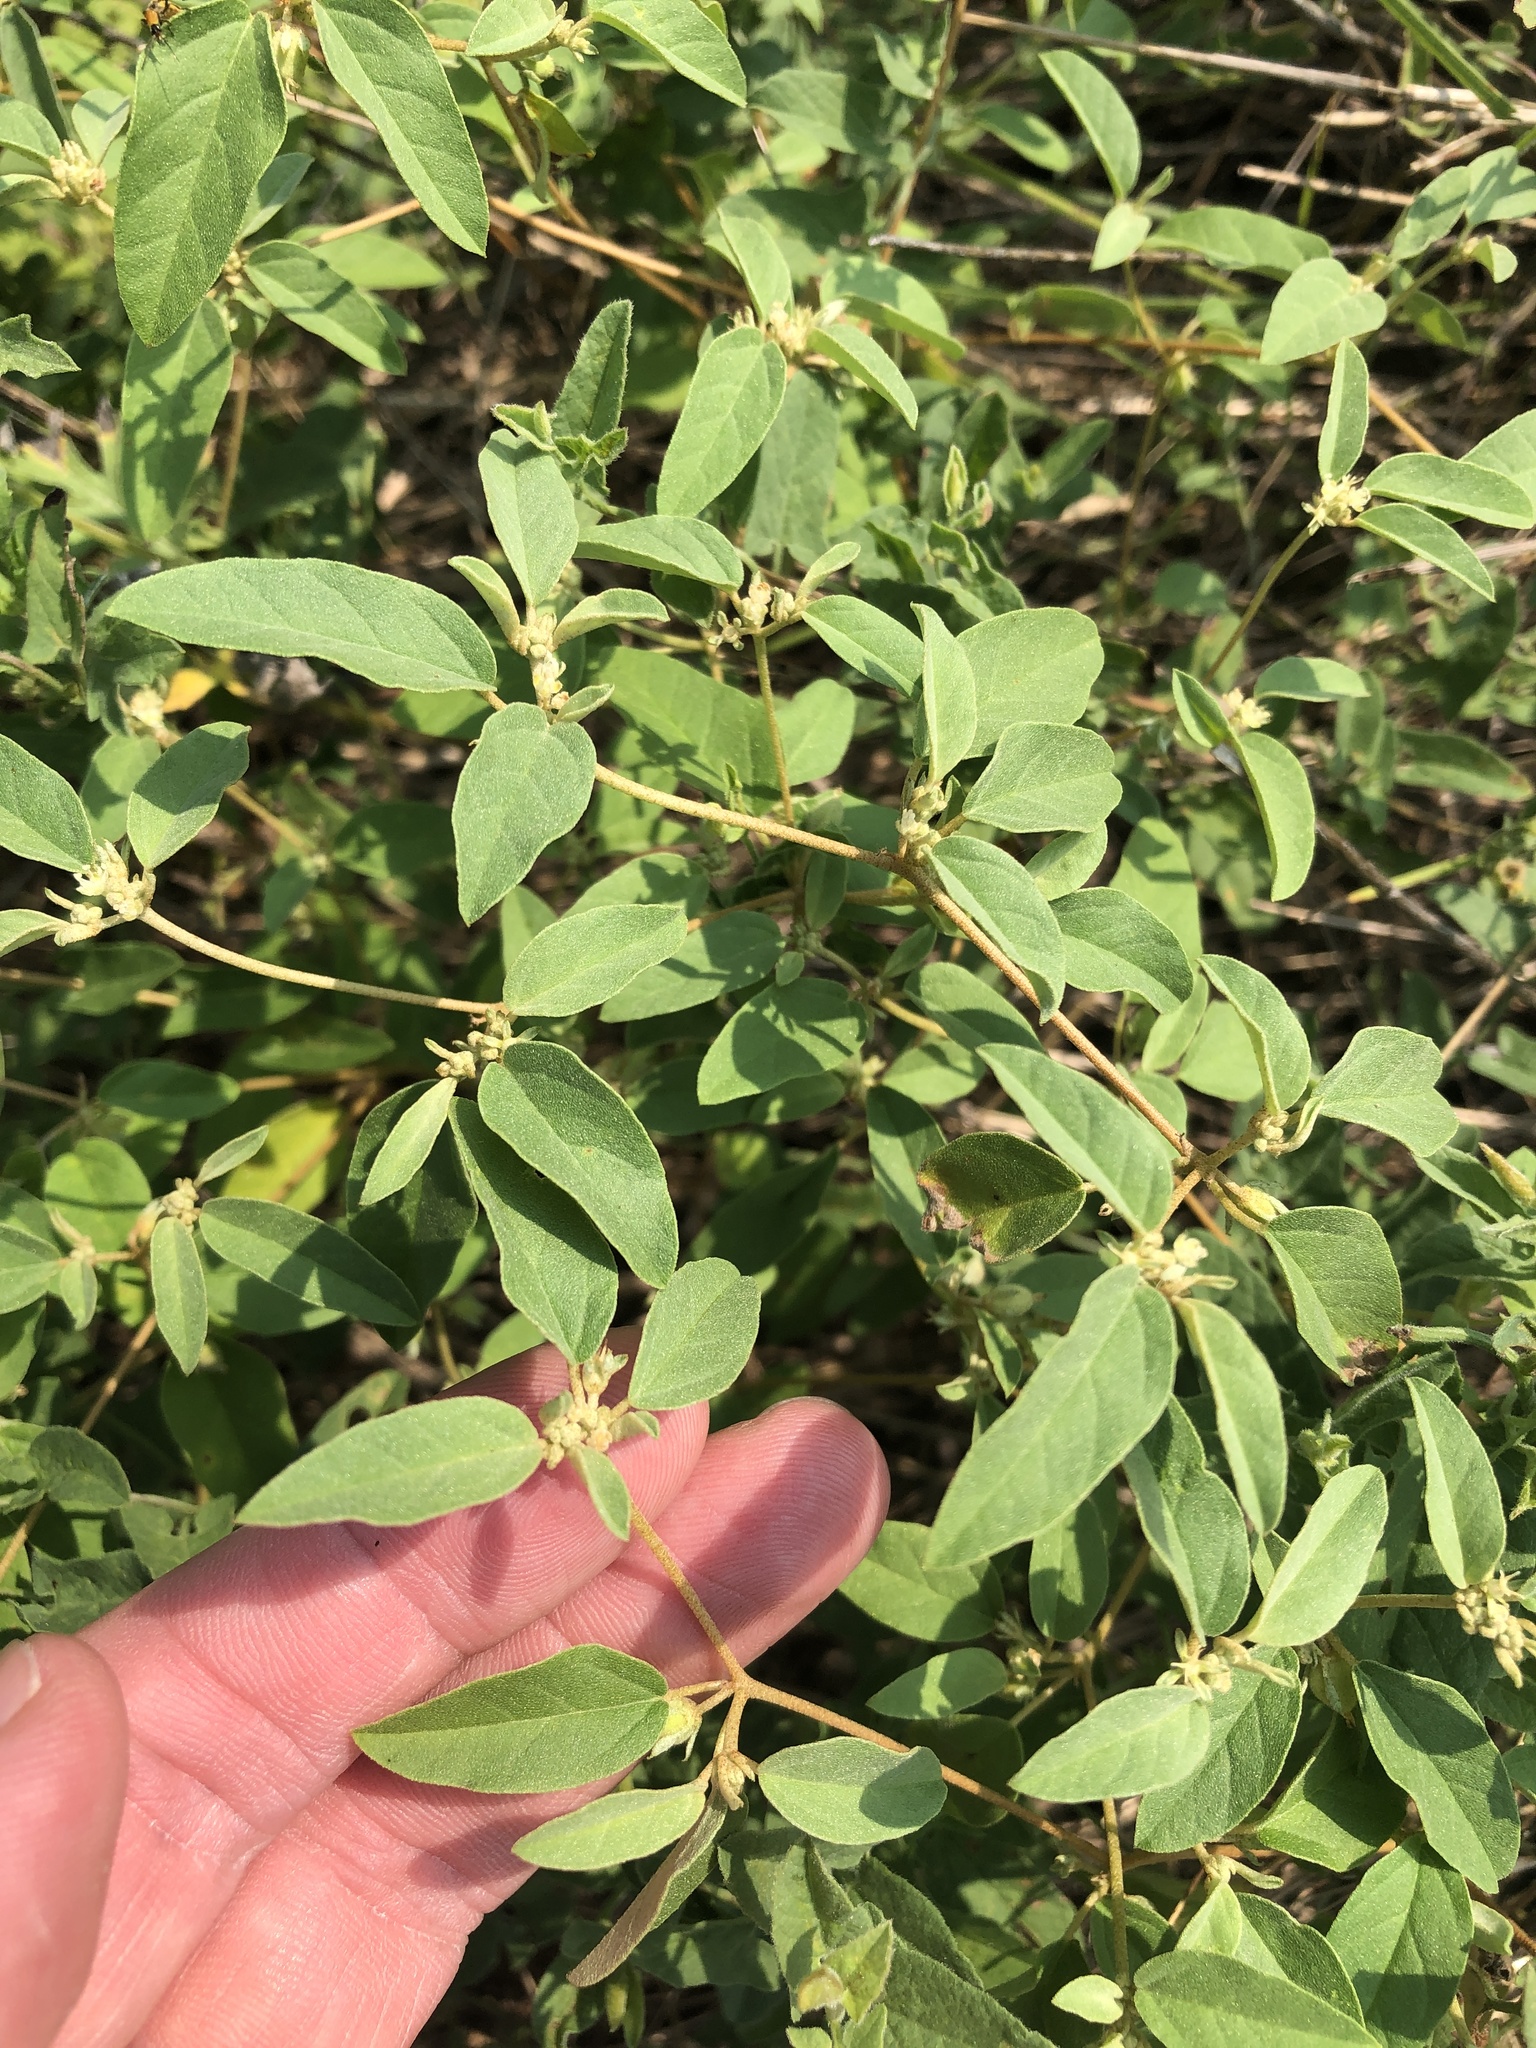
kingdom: Plantae
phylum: Tracheophyta
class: Magnoliopsida
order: Malpighiales
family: Euphorbiaceae
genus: Croton
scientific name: Croton monanthogynus
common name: One-seed croton
